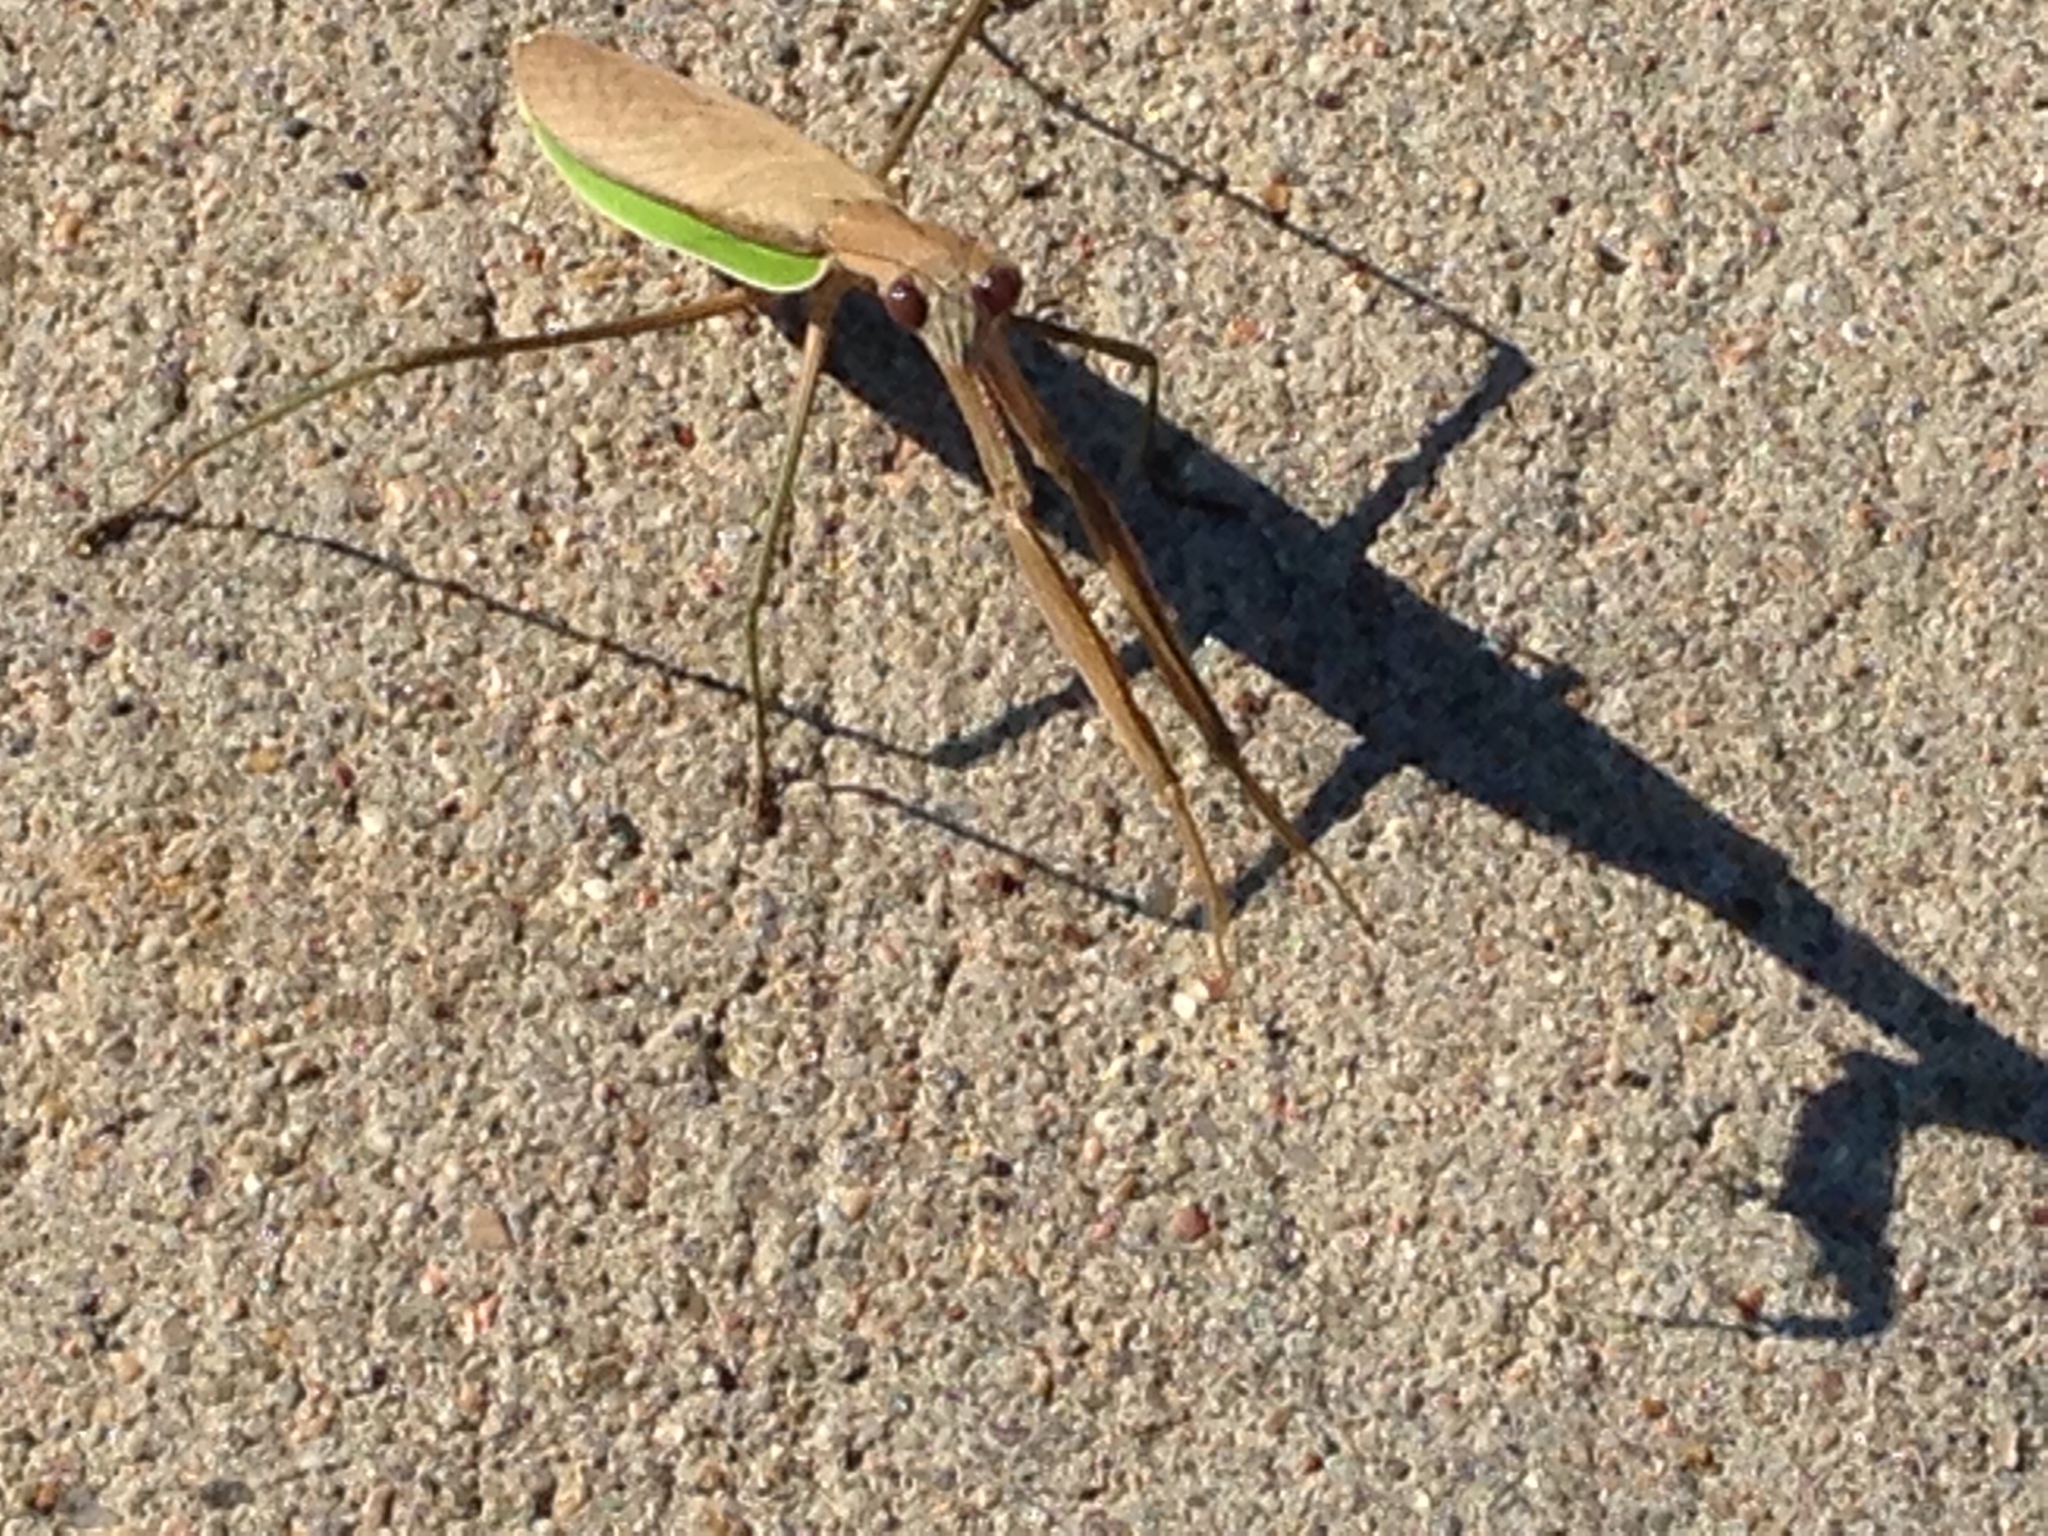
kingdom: Animalia
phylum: Arthropoda
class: Insecta
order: Mantodea
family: Mantidae
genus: Tenodera
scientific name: Tenodera sinensis
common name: Chinese mantis
